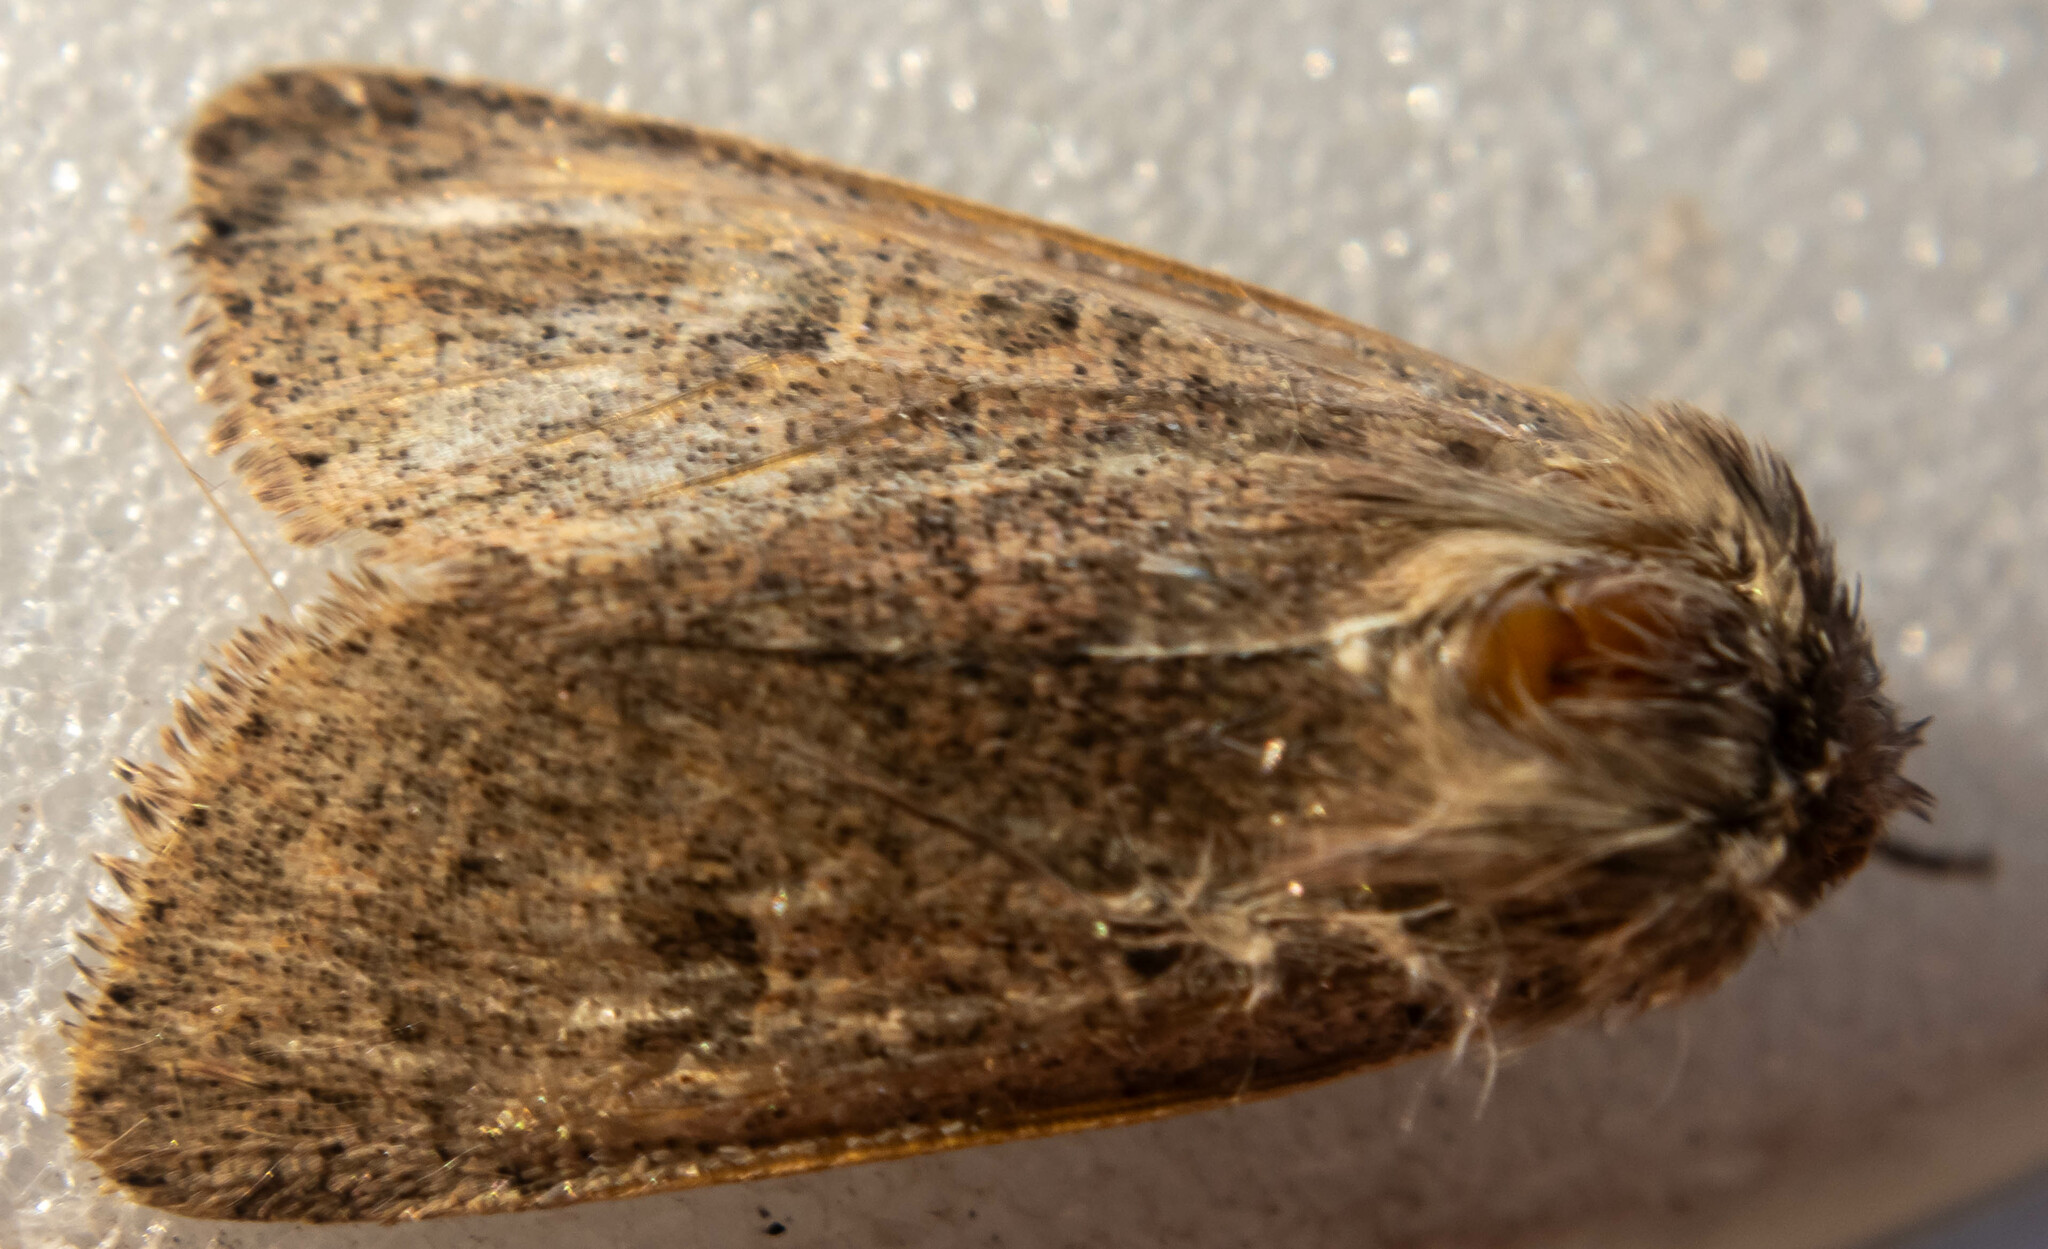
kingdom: Animalia
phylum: Arthropoda
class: Insecta
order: Lepidoptera
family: Noctuidae
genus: Orthosia
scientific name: Orthosia cruda
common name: Small quaker
